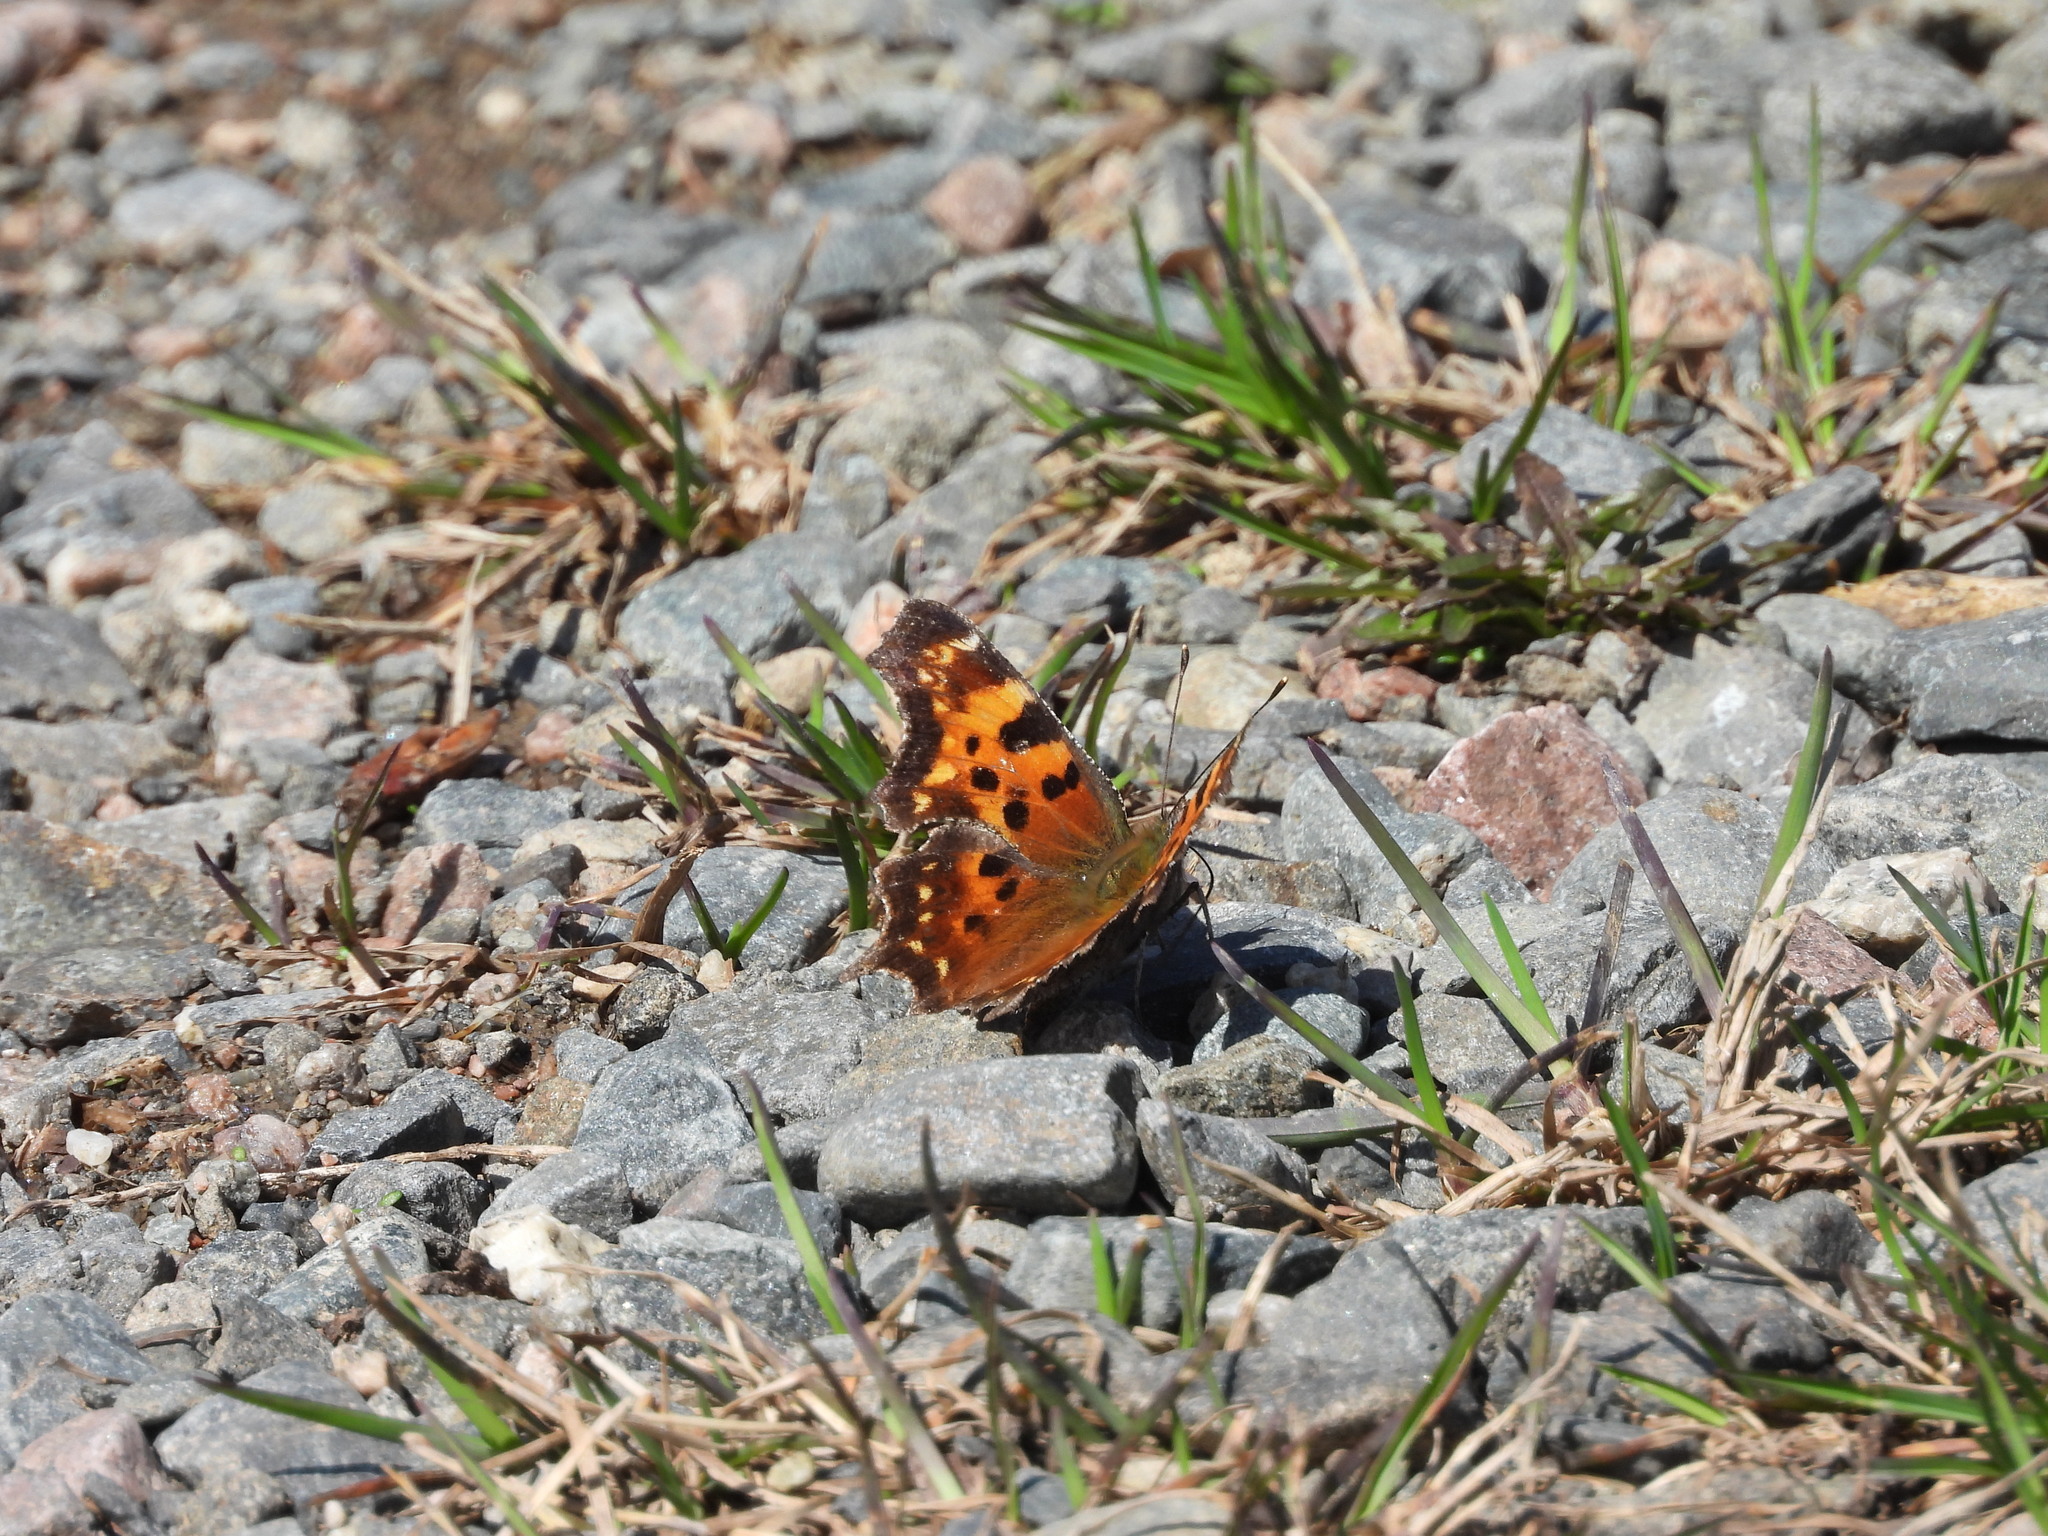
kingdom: Animalia
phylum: Arthropoda
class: Insecta
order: Lepidoptera
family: Nymphalidae
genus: Polygonia
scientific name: Polygonia faunus
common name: Green comma
